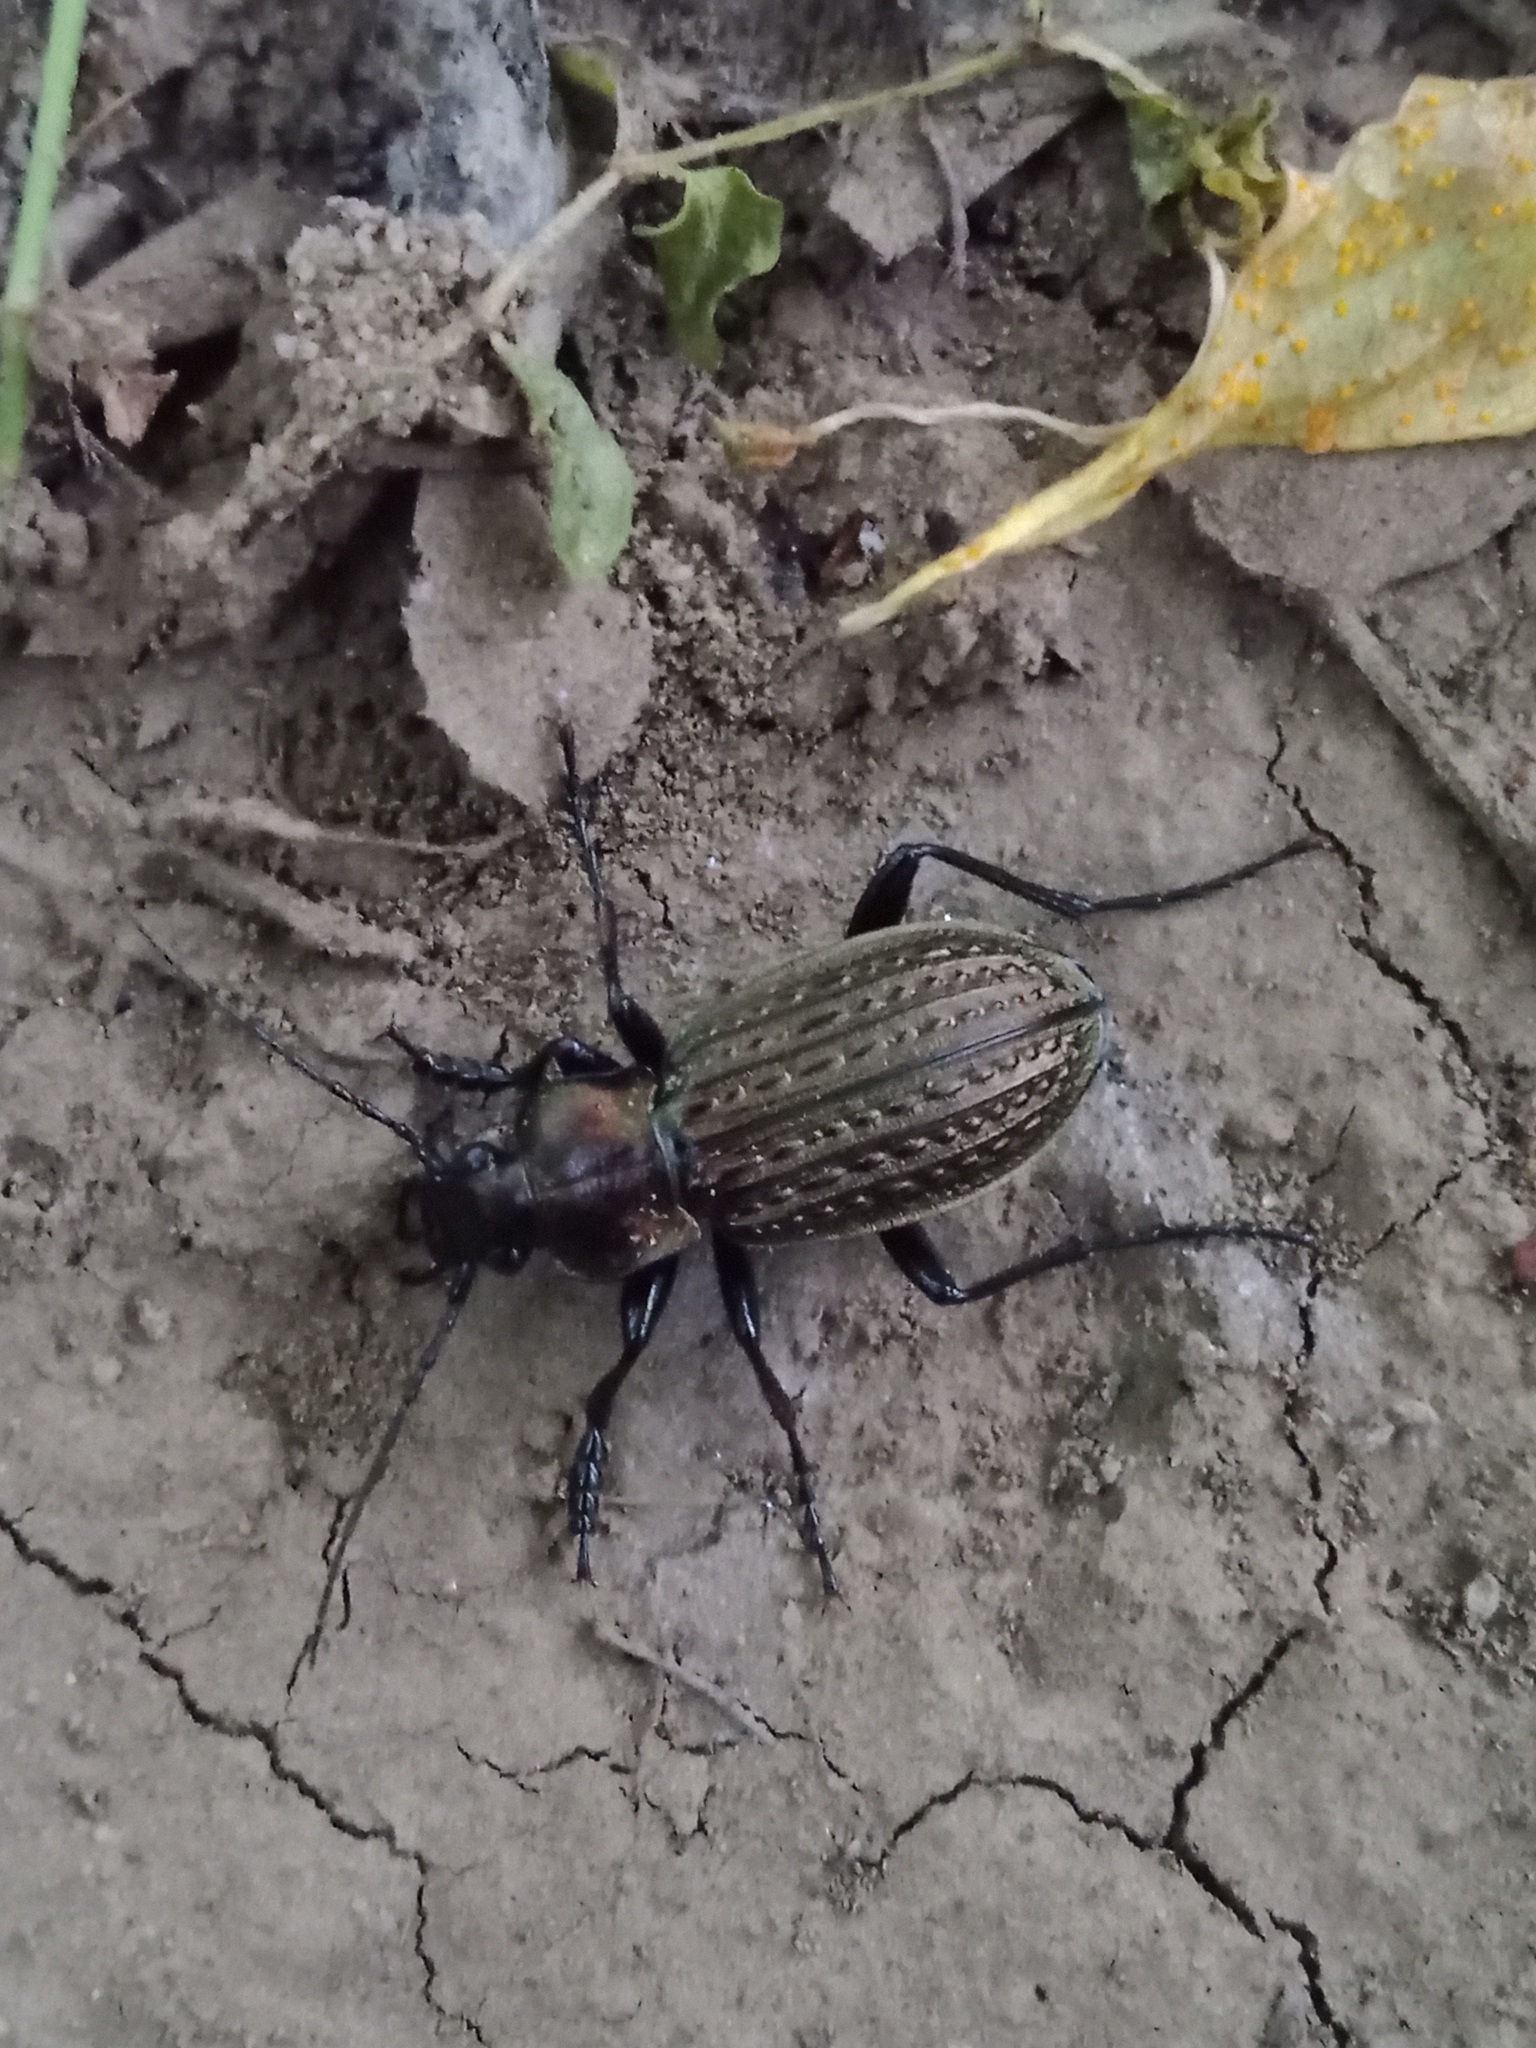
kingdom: Animalia
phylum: Arthropoda
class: Insecta
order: Coleoptera
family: Carabidae
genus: Carabus
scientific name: Carabus granulatus
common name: Granulate ground beetle
